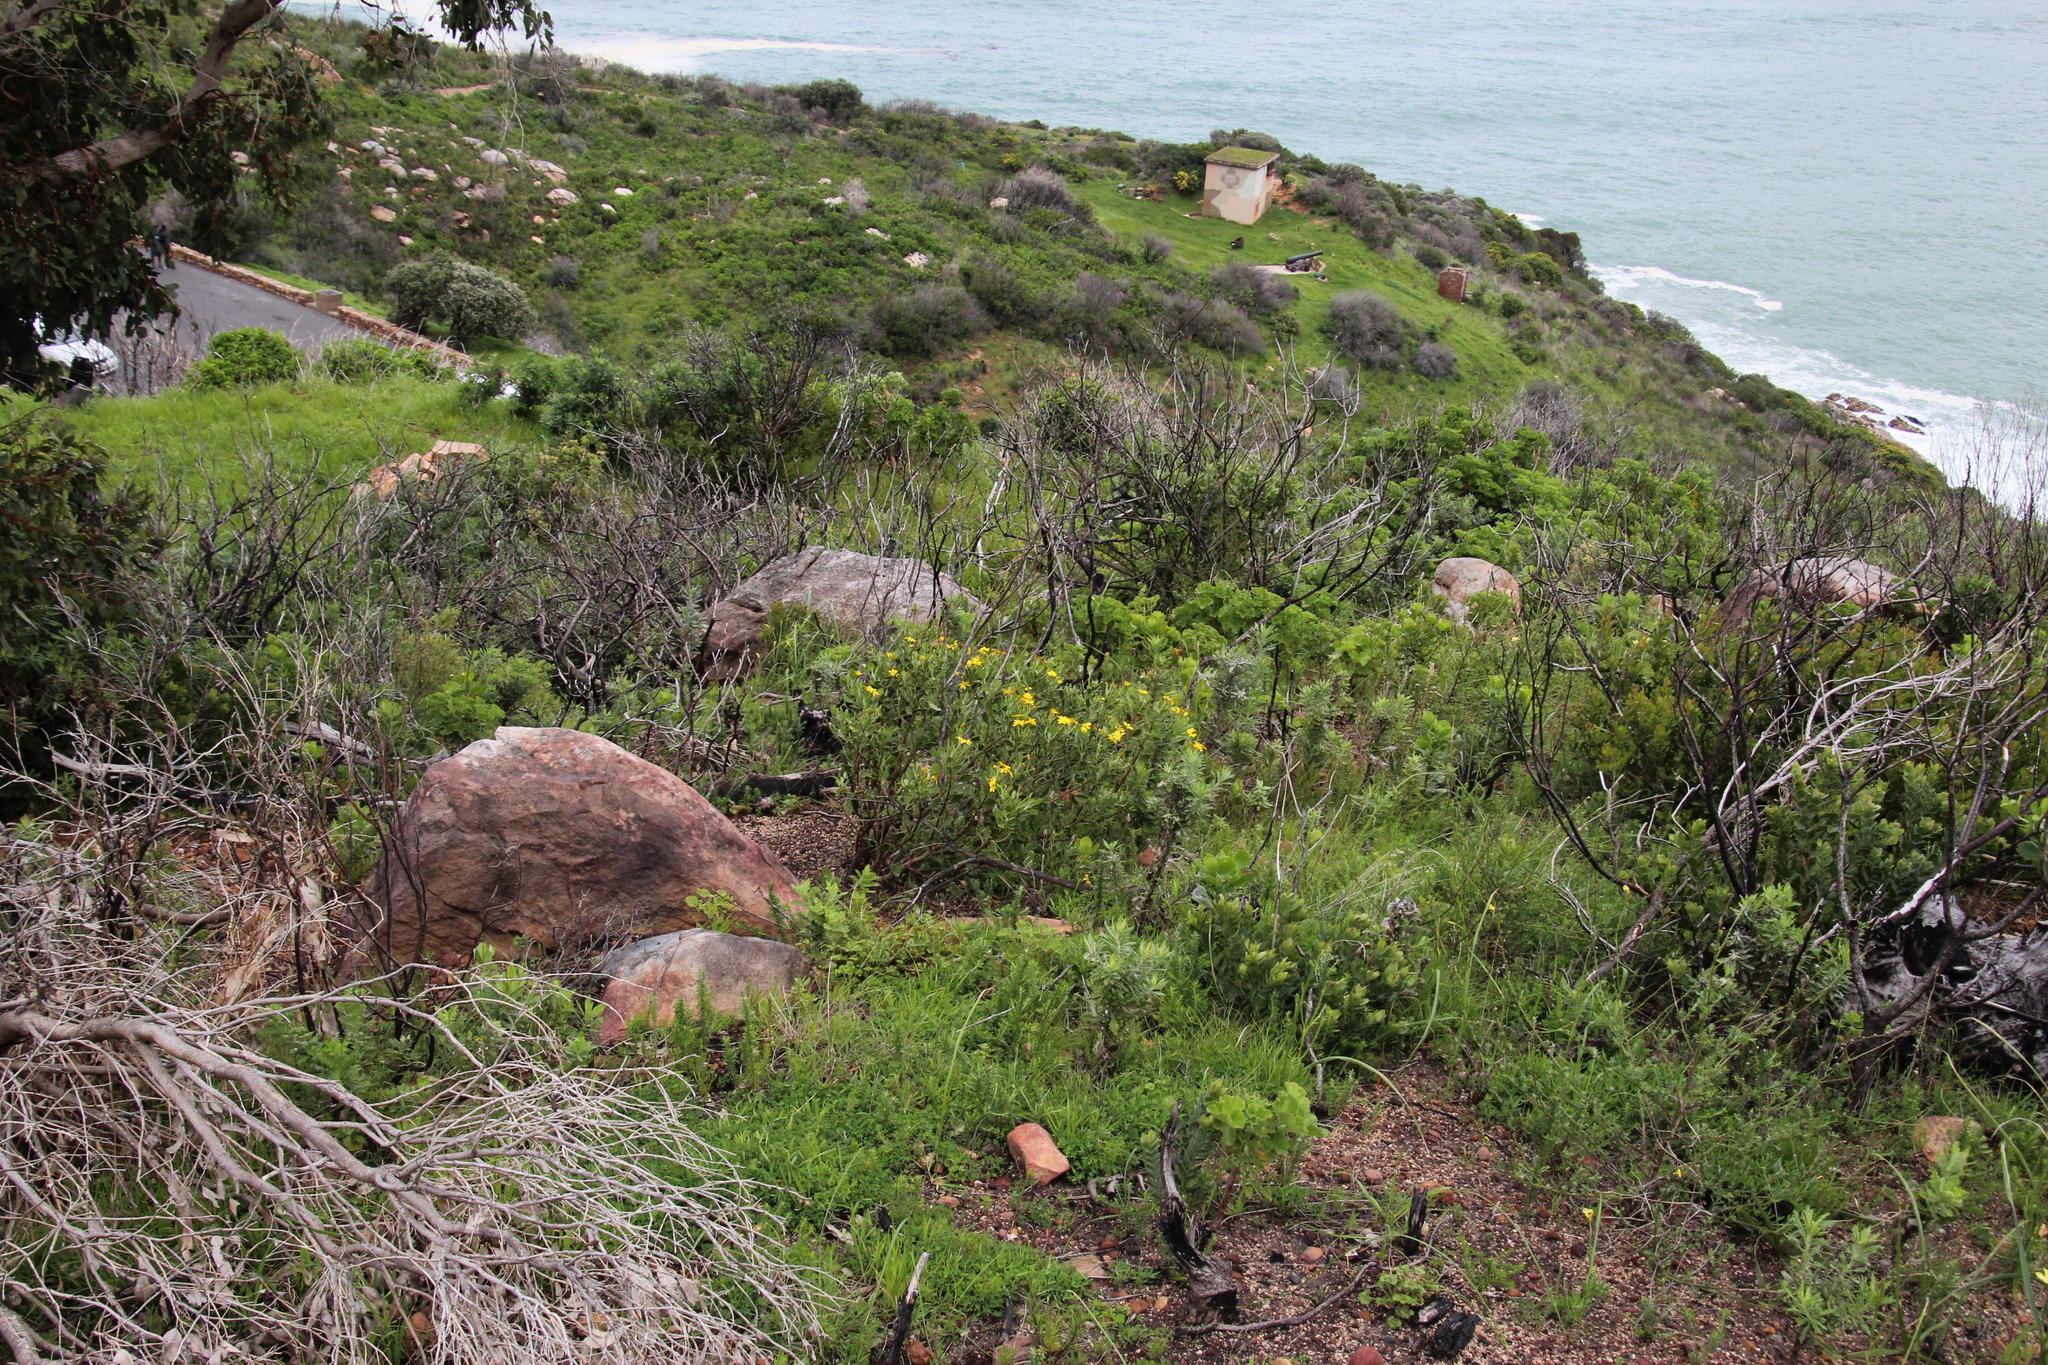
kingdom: Plantae
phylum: Tracheophyta
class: Magnoliopsida
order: Asterales
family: Asteraceae
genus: Osteospermum
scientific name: Osteospermum moniliferum
